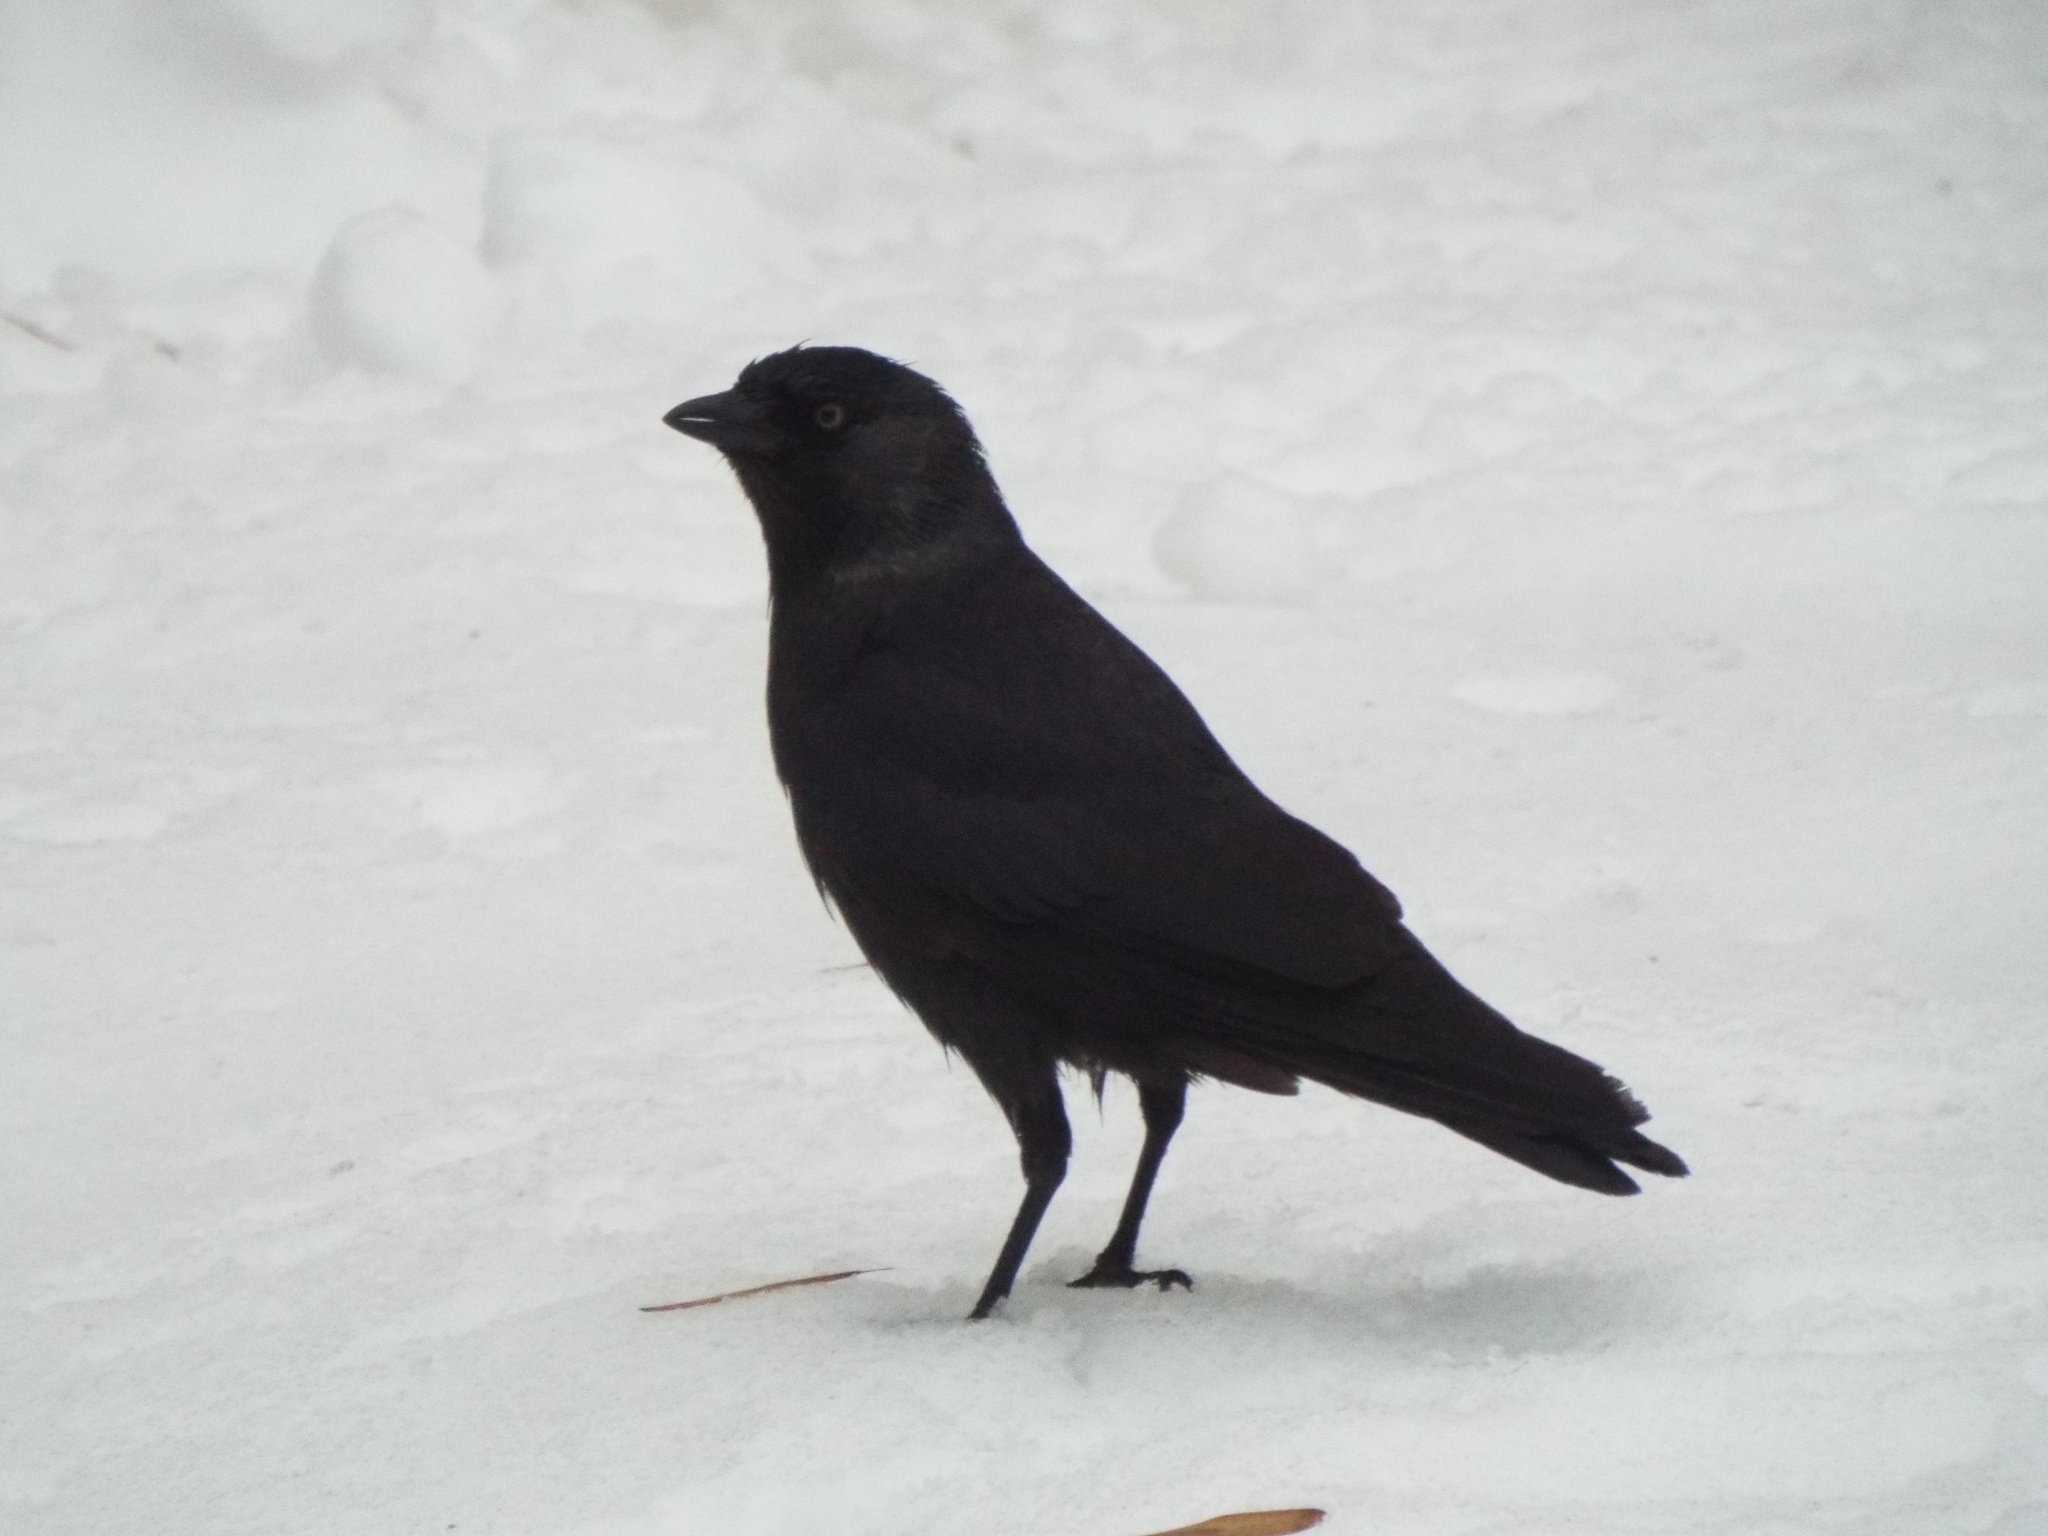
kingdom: Animalia
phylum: Chordata
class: Aves
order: Passeriformes
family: Corvidae
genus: Coloeus
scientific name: Coloeus monedula
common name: Western jackdaw
